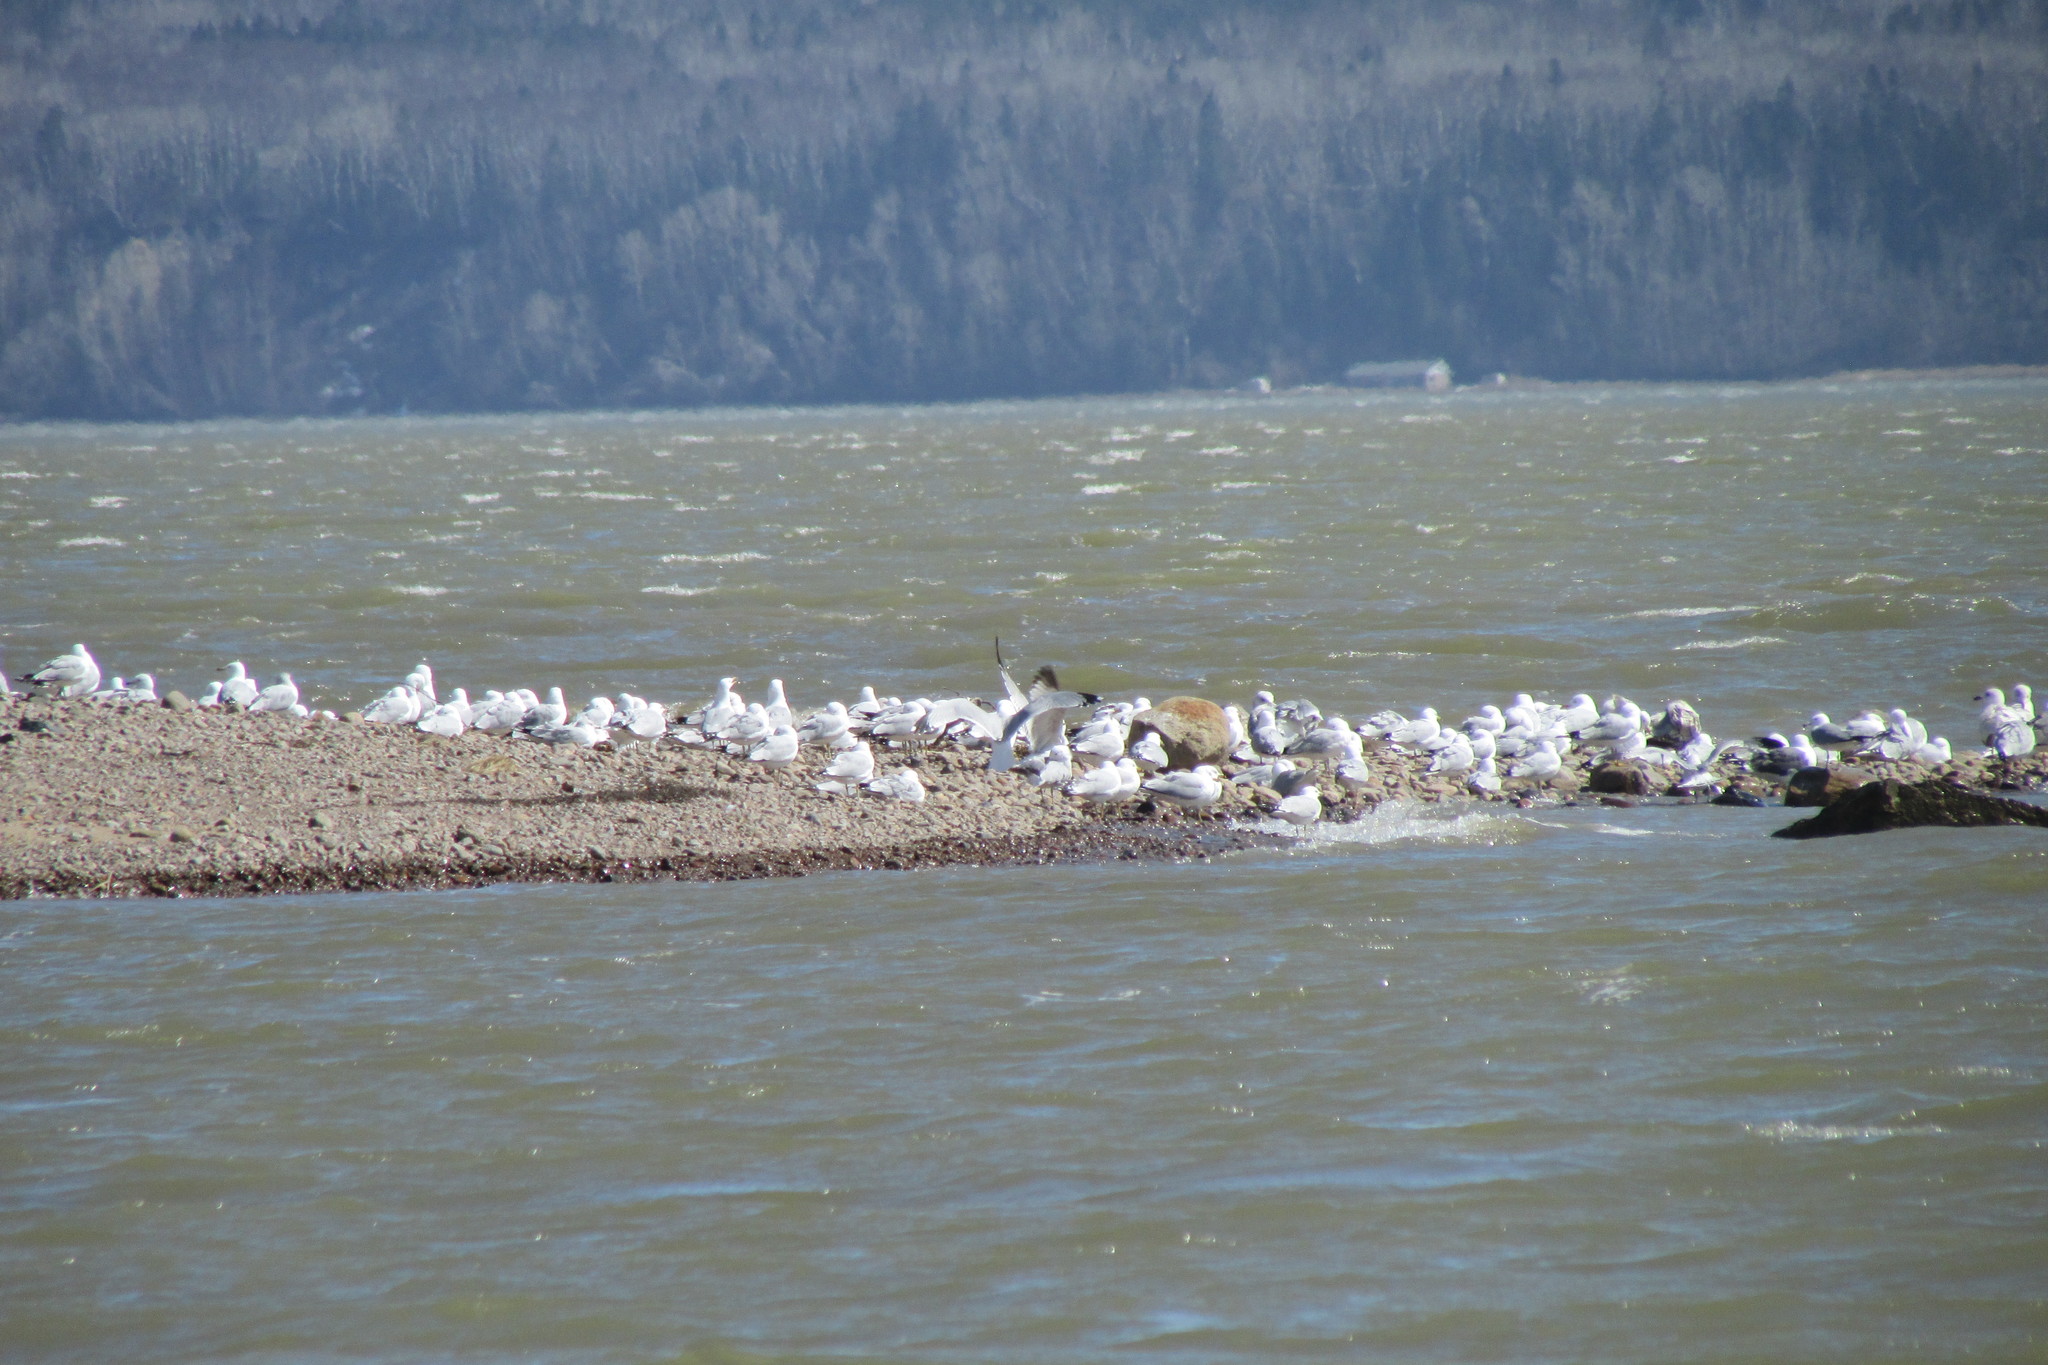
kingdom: Animalia
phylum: Chordata
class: Aves
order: Charadriiformes
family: Laridae
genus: Larus
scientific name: Larus delawarensis
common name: Ring-billed gull
